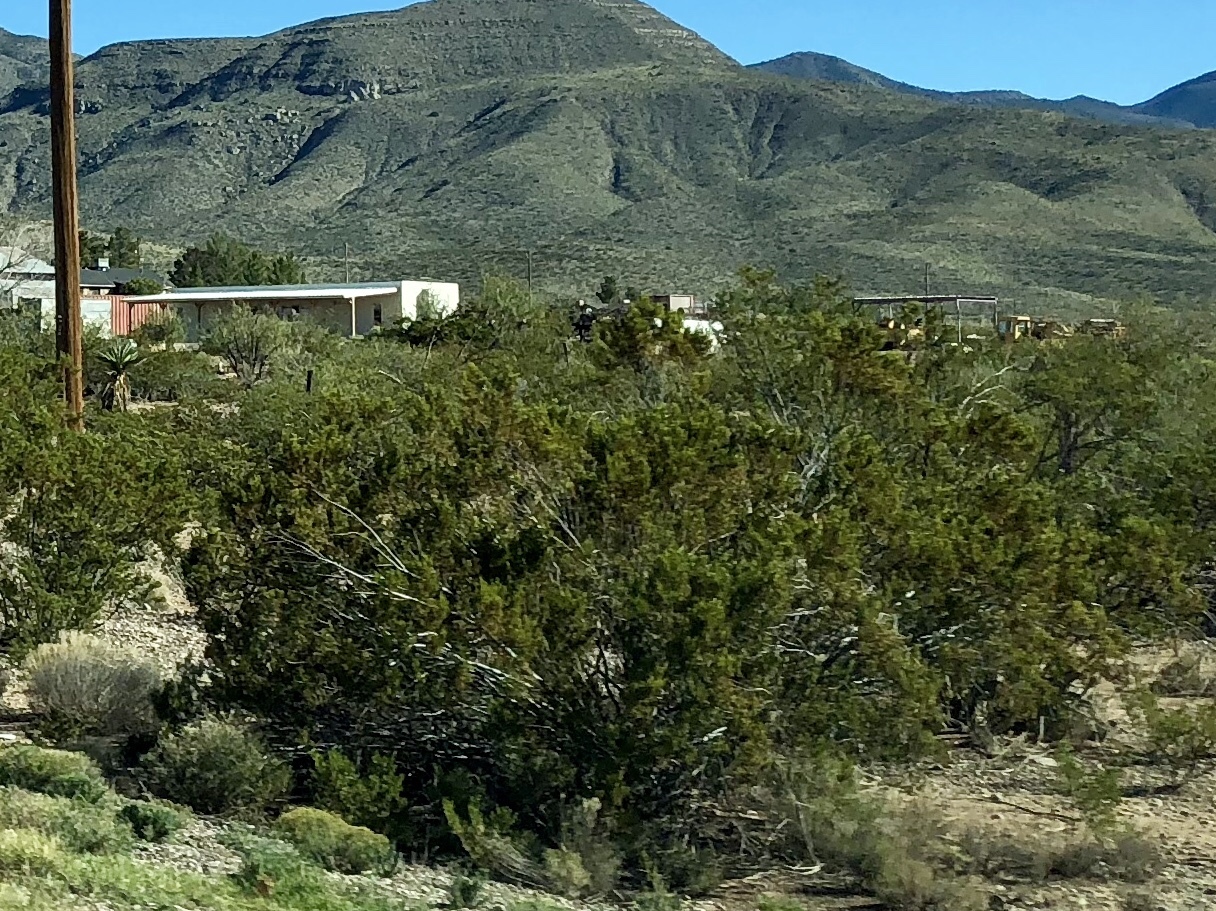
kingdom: Plantae
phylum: Tracheophyta
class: Magnoliopsida
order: Zygophyllales
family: Zygophyllaceae
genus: Larrea
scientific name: Larrea tridentata
